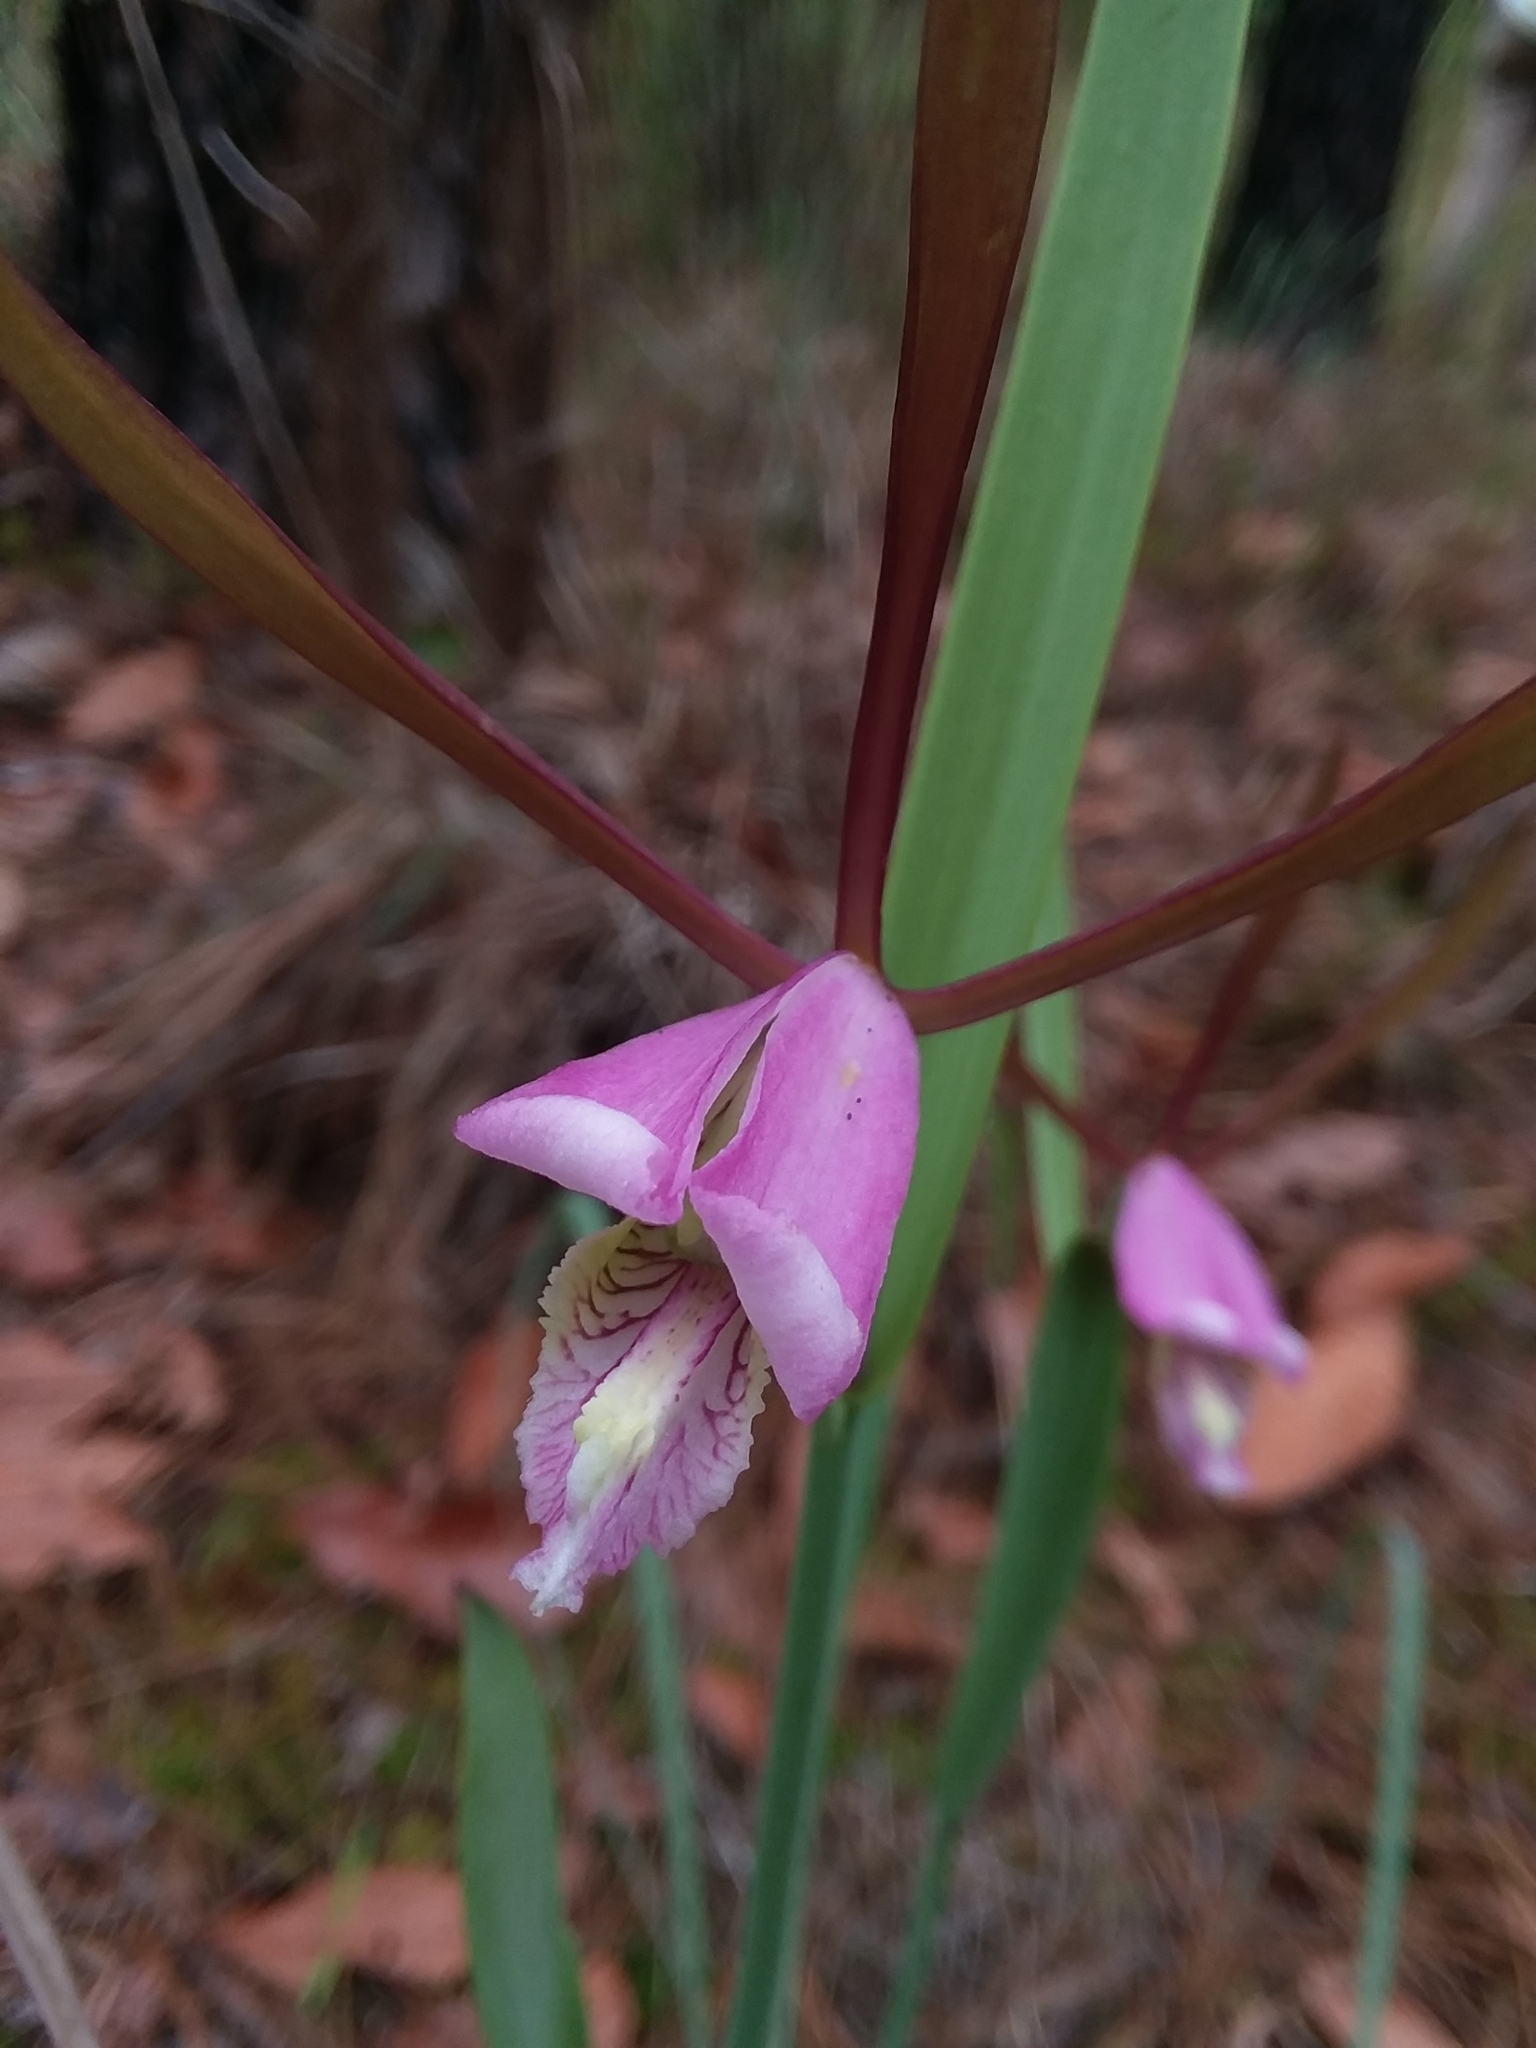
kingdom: Plantae
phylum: Tracheophyta
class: Liliopsida
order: Asparagales
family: Orchidaceae
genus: Cleistesiopsis
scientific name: Cleistesiopsis oricamporum
